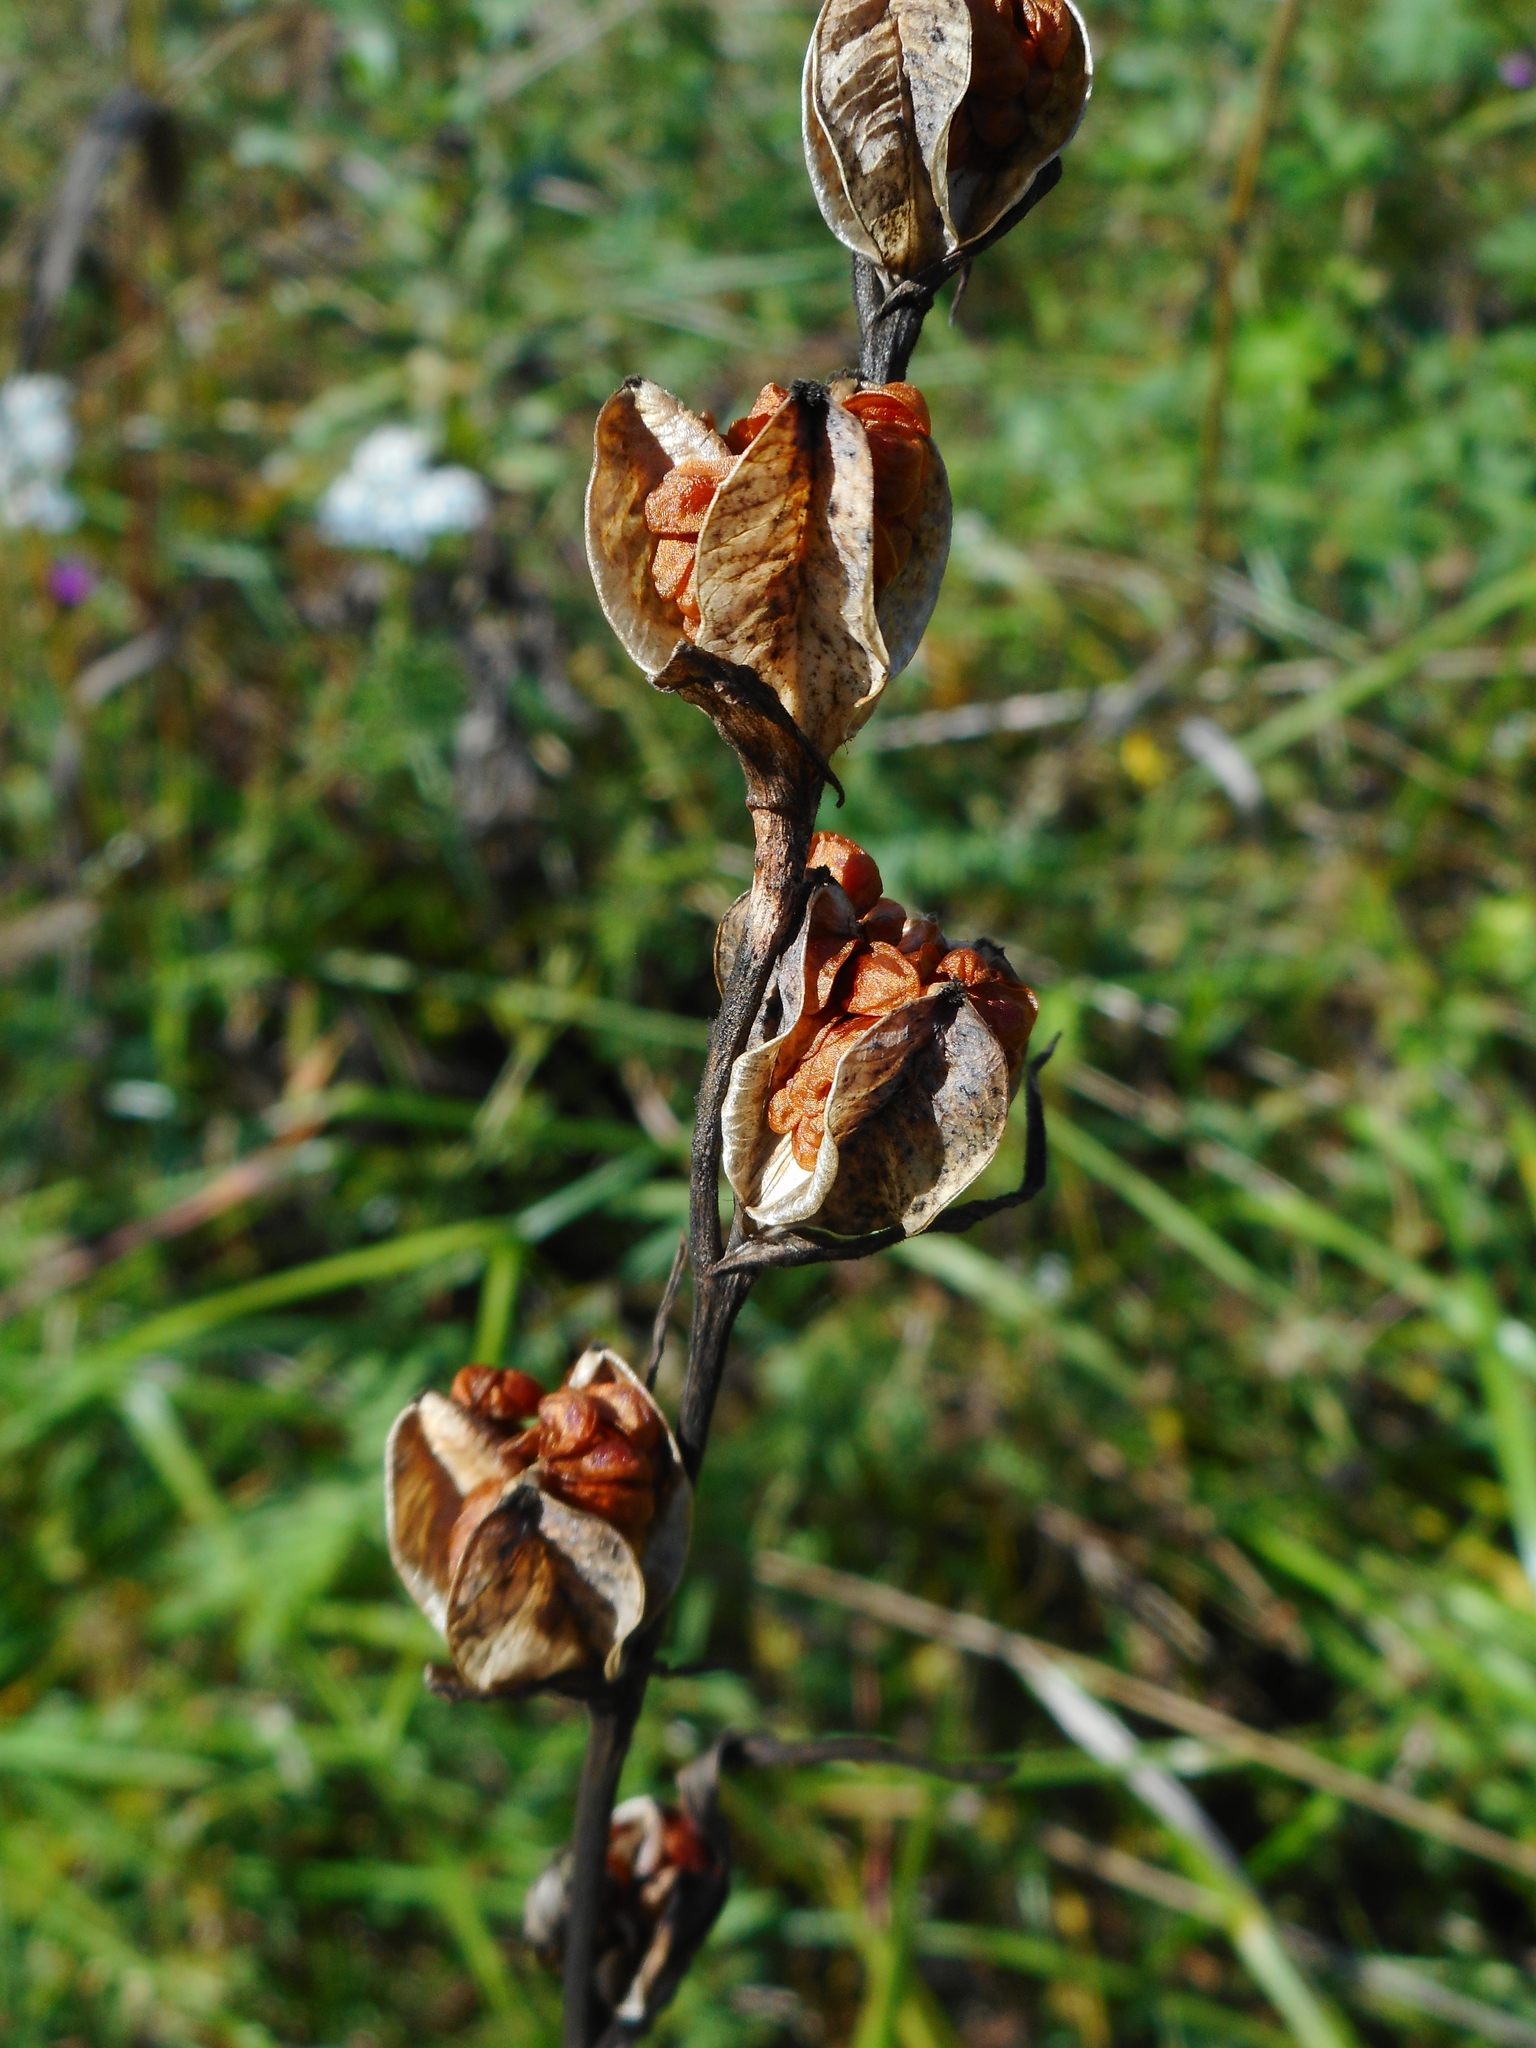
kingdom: Plantae
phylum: Tracheophyta
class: Liliopsida
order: Asparagales
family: Iridaceae
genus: Gladiolus
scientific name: Gladiolus imbricatus
